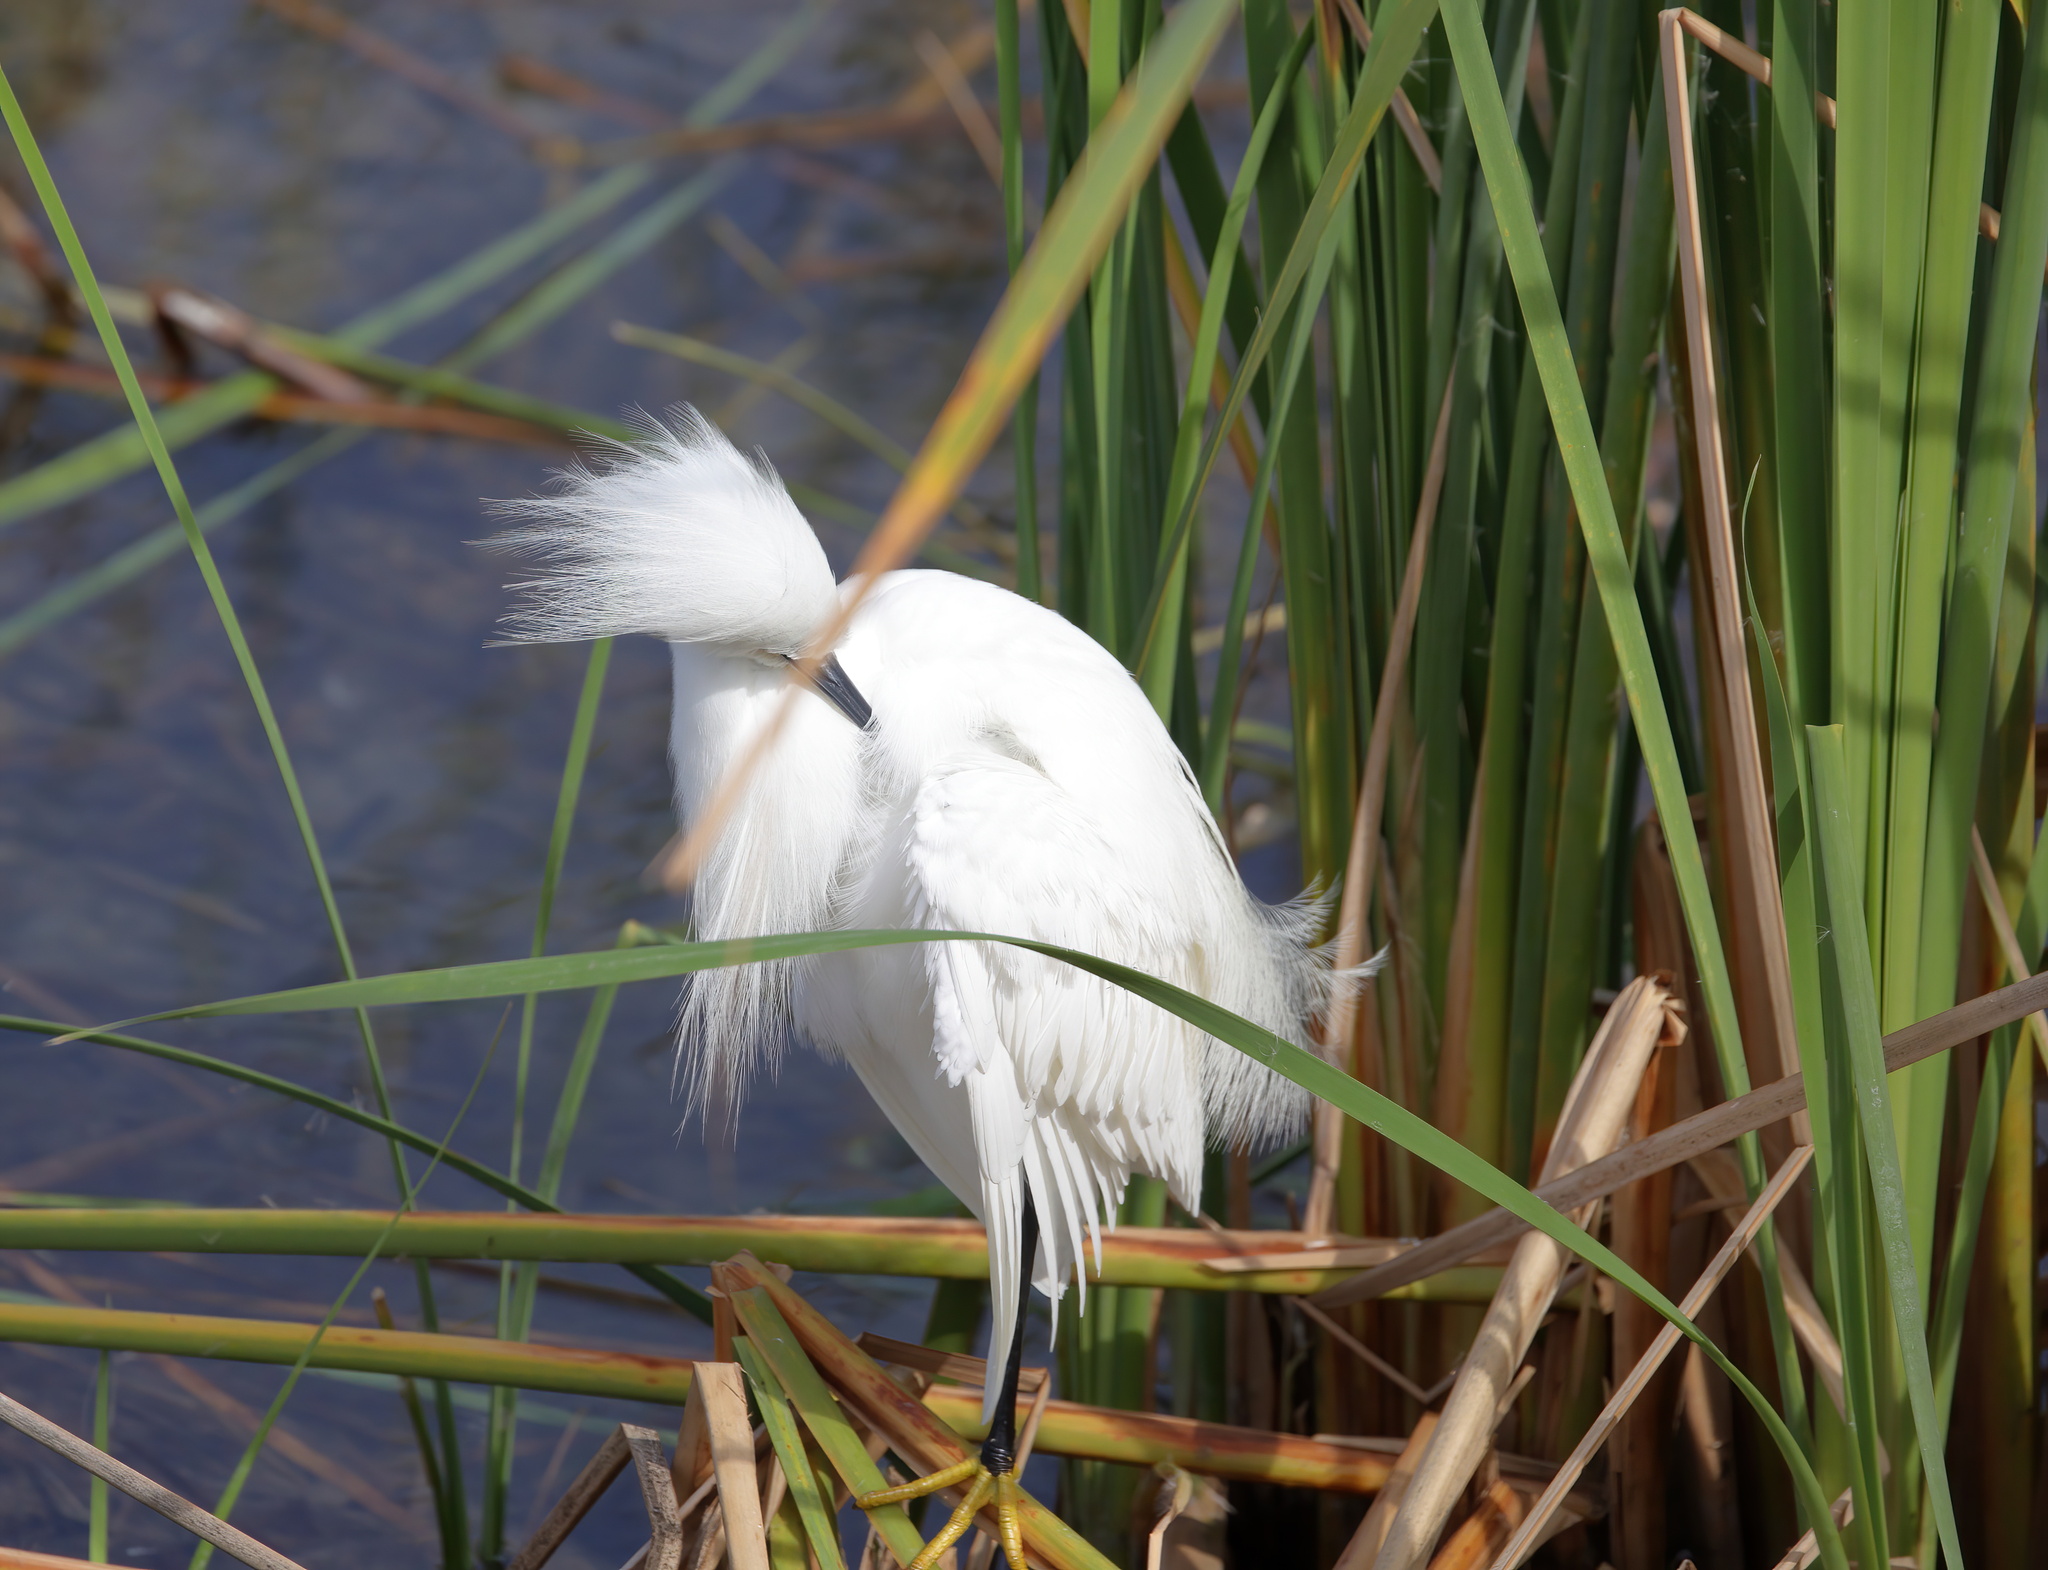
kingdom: Animalia
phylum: Chordata
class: Aves
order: Pelecaniformes
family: Ardeidae
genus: Egretta
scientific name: Egretta thula
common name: Snowy egret
